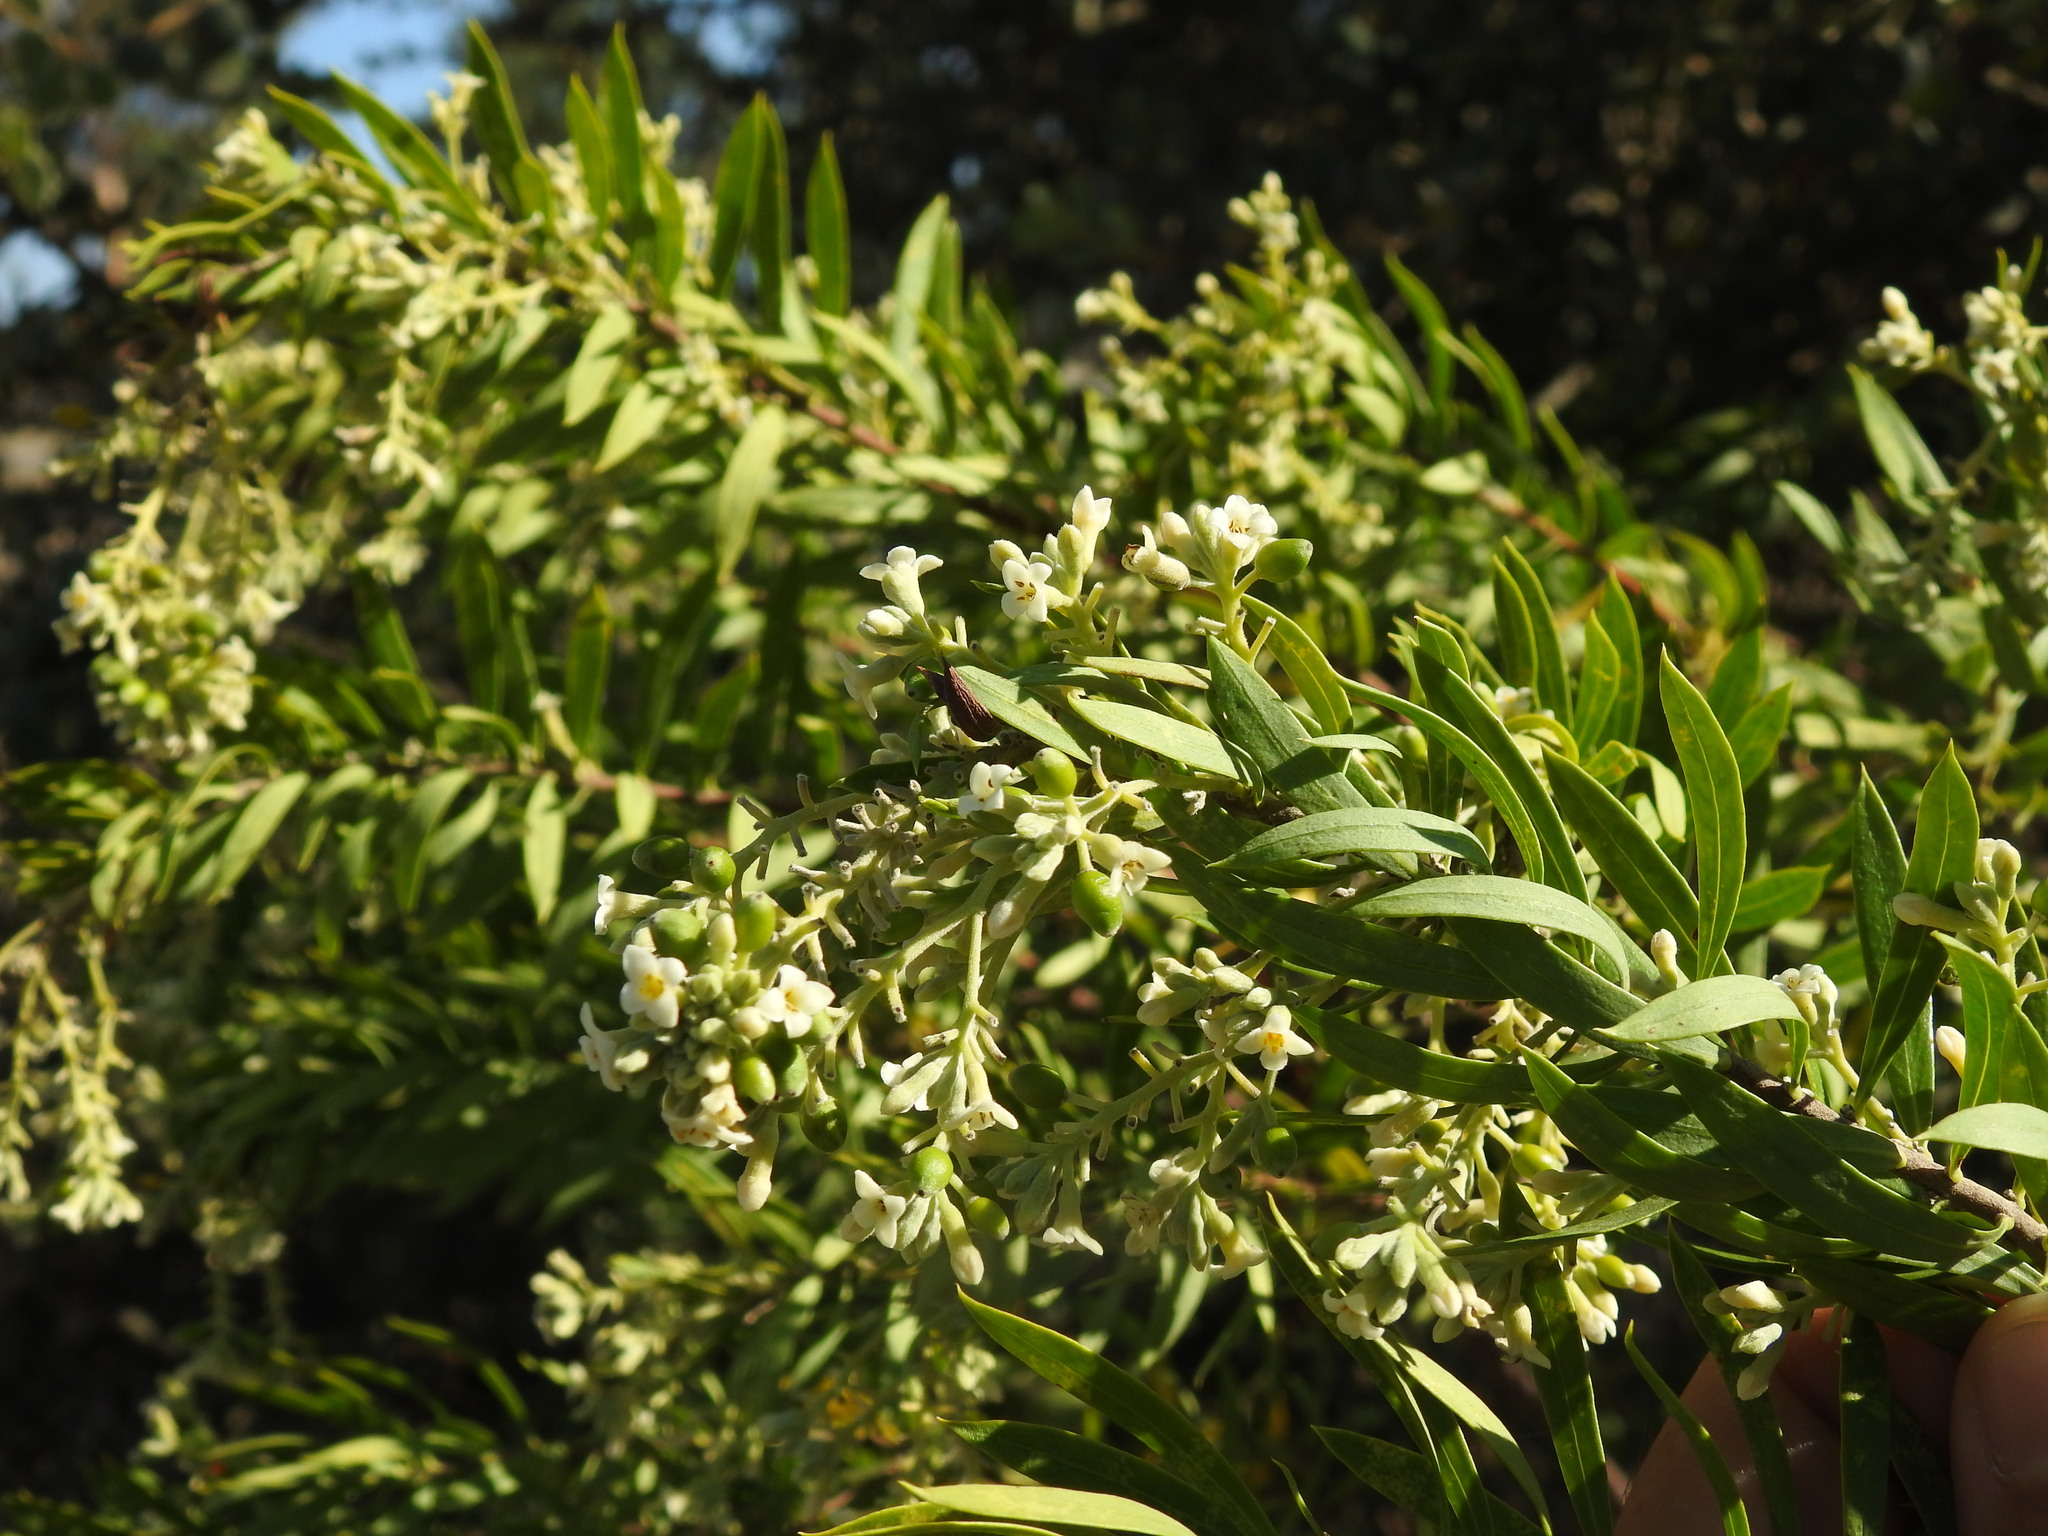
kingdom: Plantae
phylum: Tracheophyta
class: Magnoliopsida
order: Malvales
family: Thymelaeaceae
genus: Daphne
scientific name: Daphne gnidium
